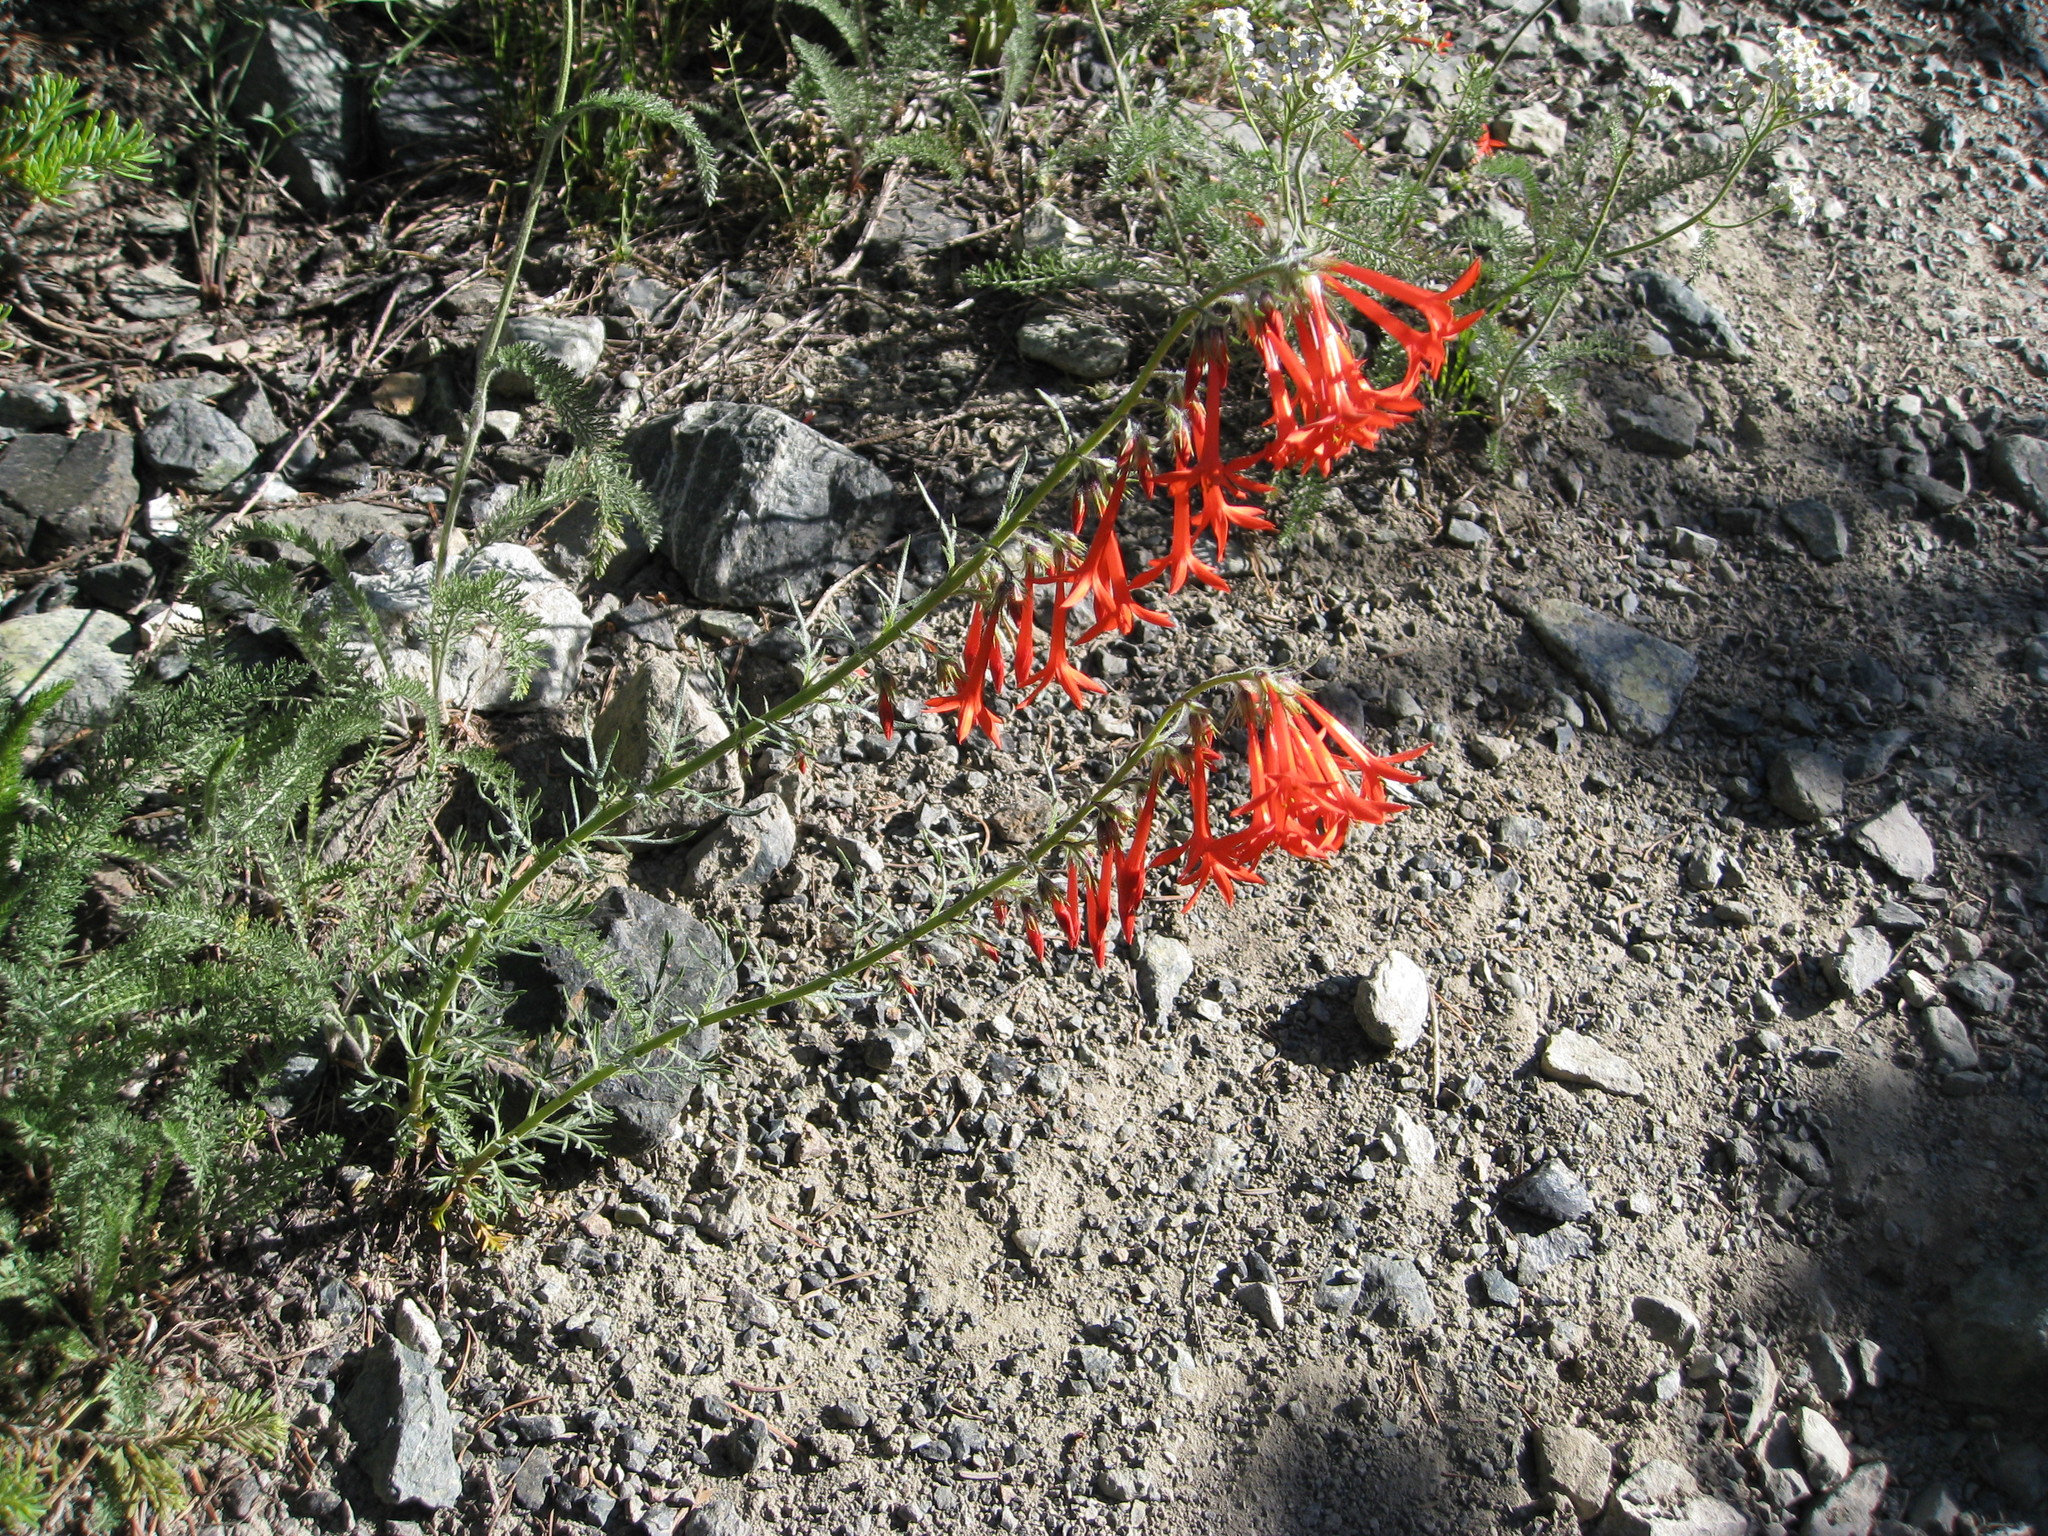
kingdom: Plantae
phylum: Tracheophyta
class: Magnoliopsida
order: Ericales
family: Polemoniaceae
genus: Ipomopsis
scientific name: Ipomopsis aggregata
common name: Scarlet gilia
